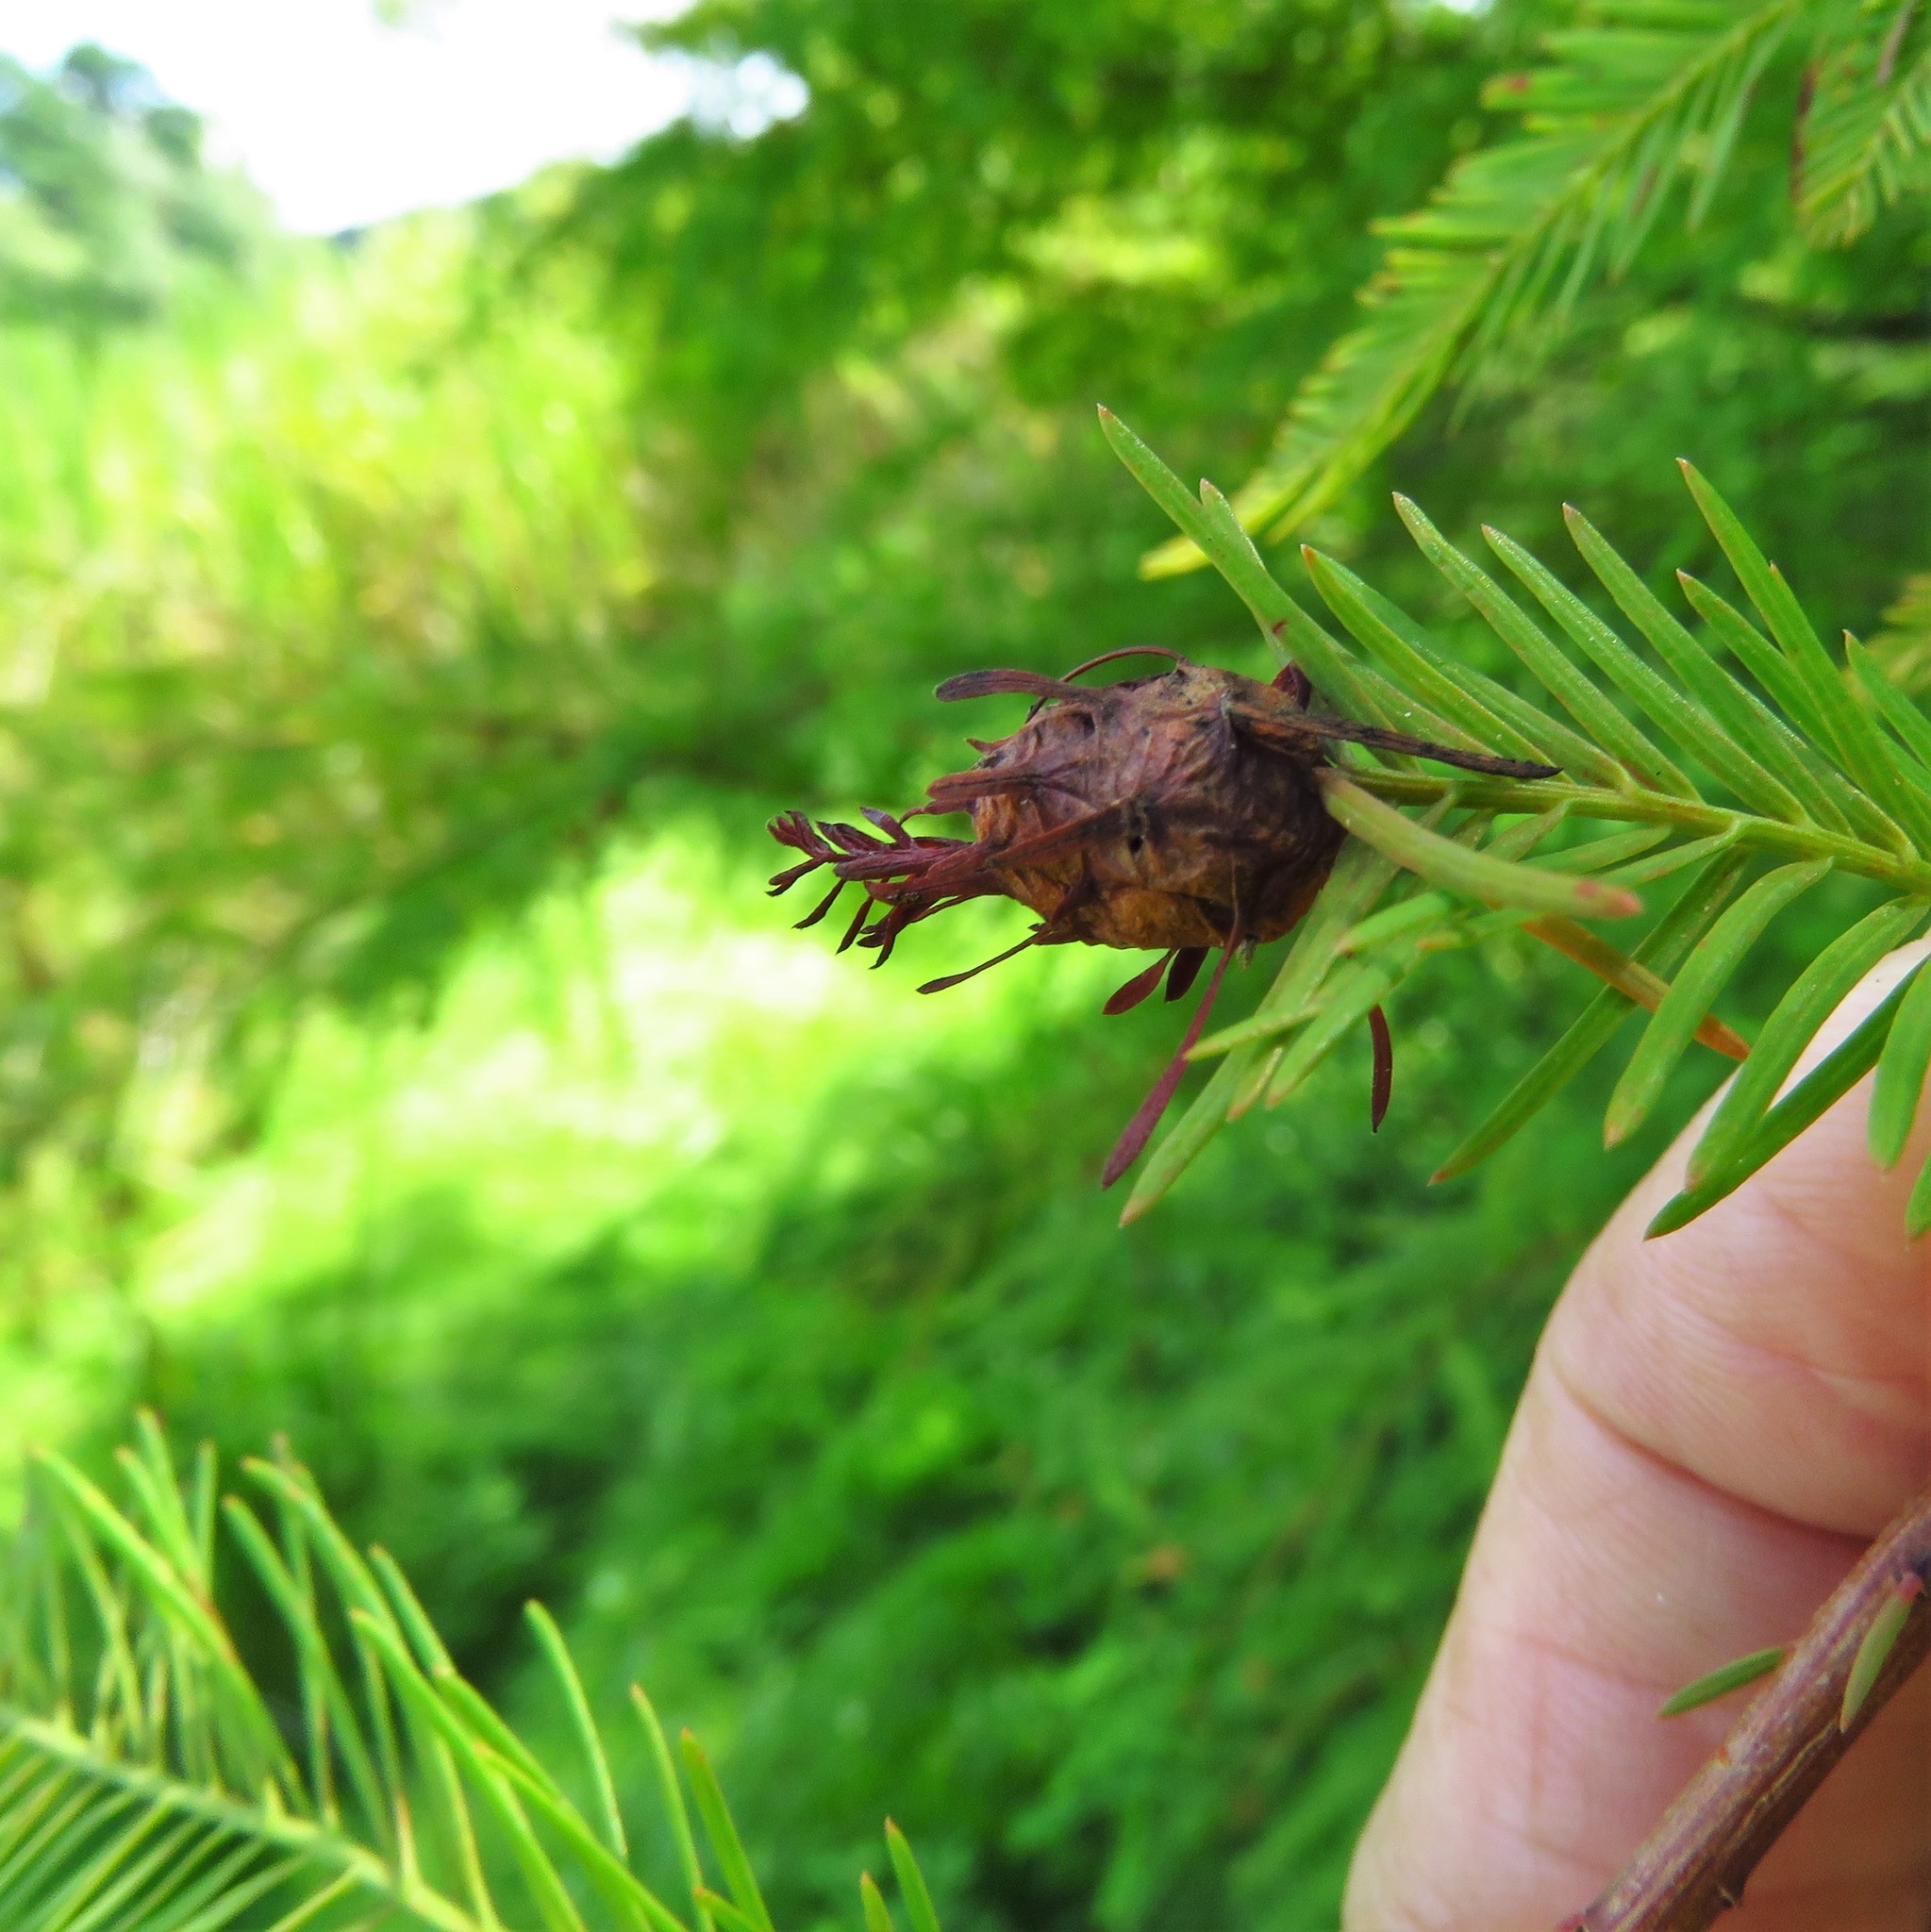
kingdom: Animalia
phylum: Arthropoda
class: Insecta
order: Diptera
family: Cecidomyiidae
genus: Taxodiomyia
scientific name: Taxodiomyia cupressiananassa
